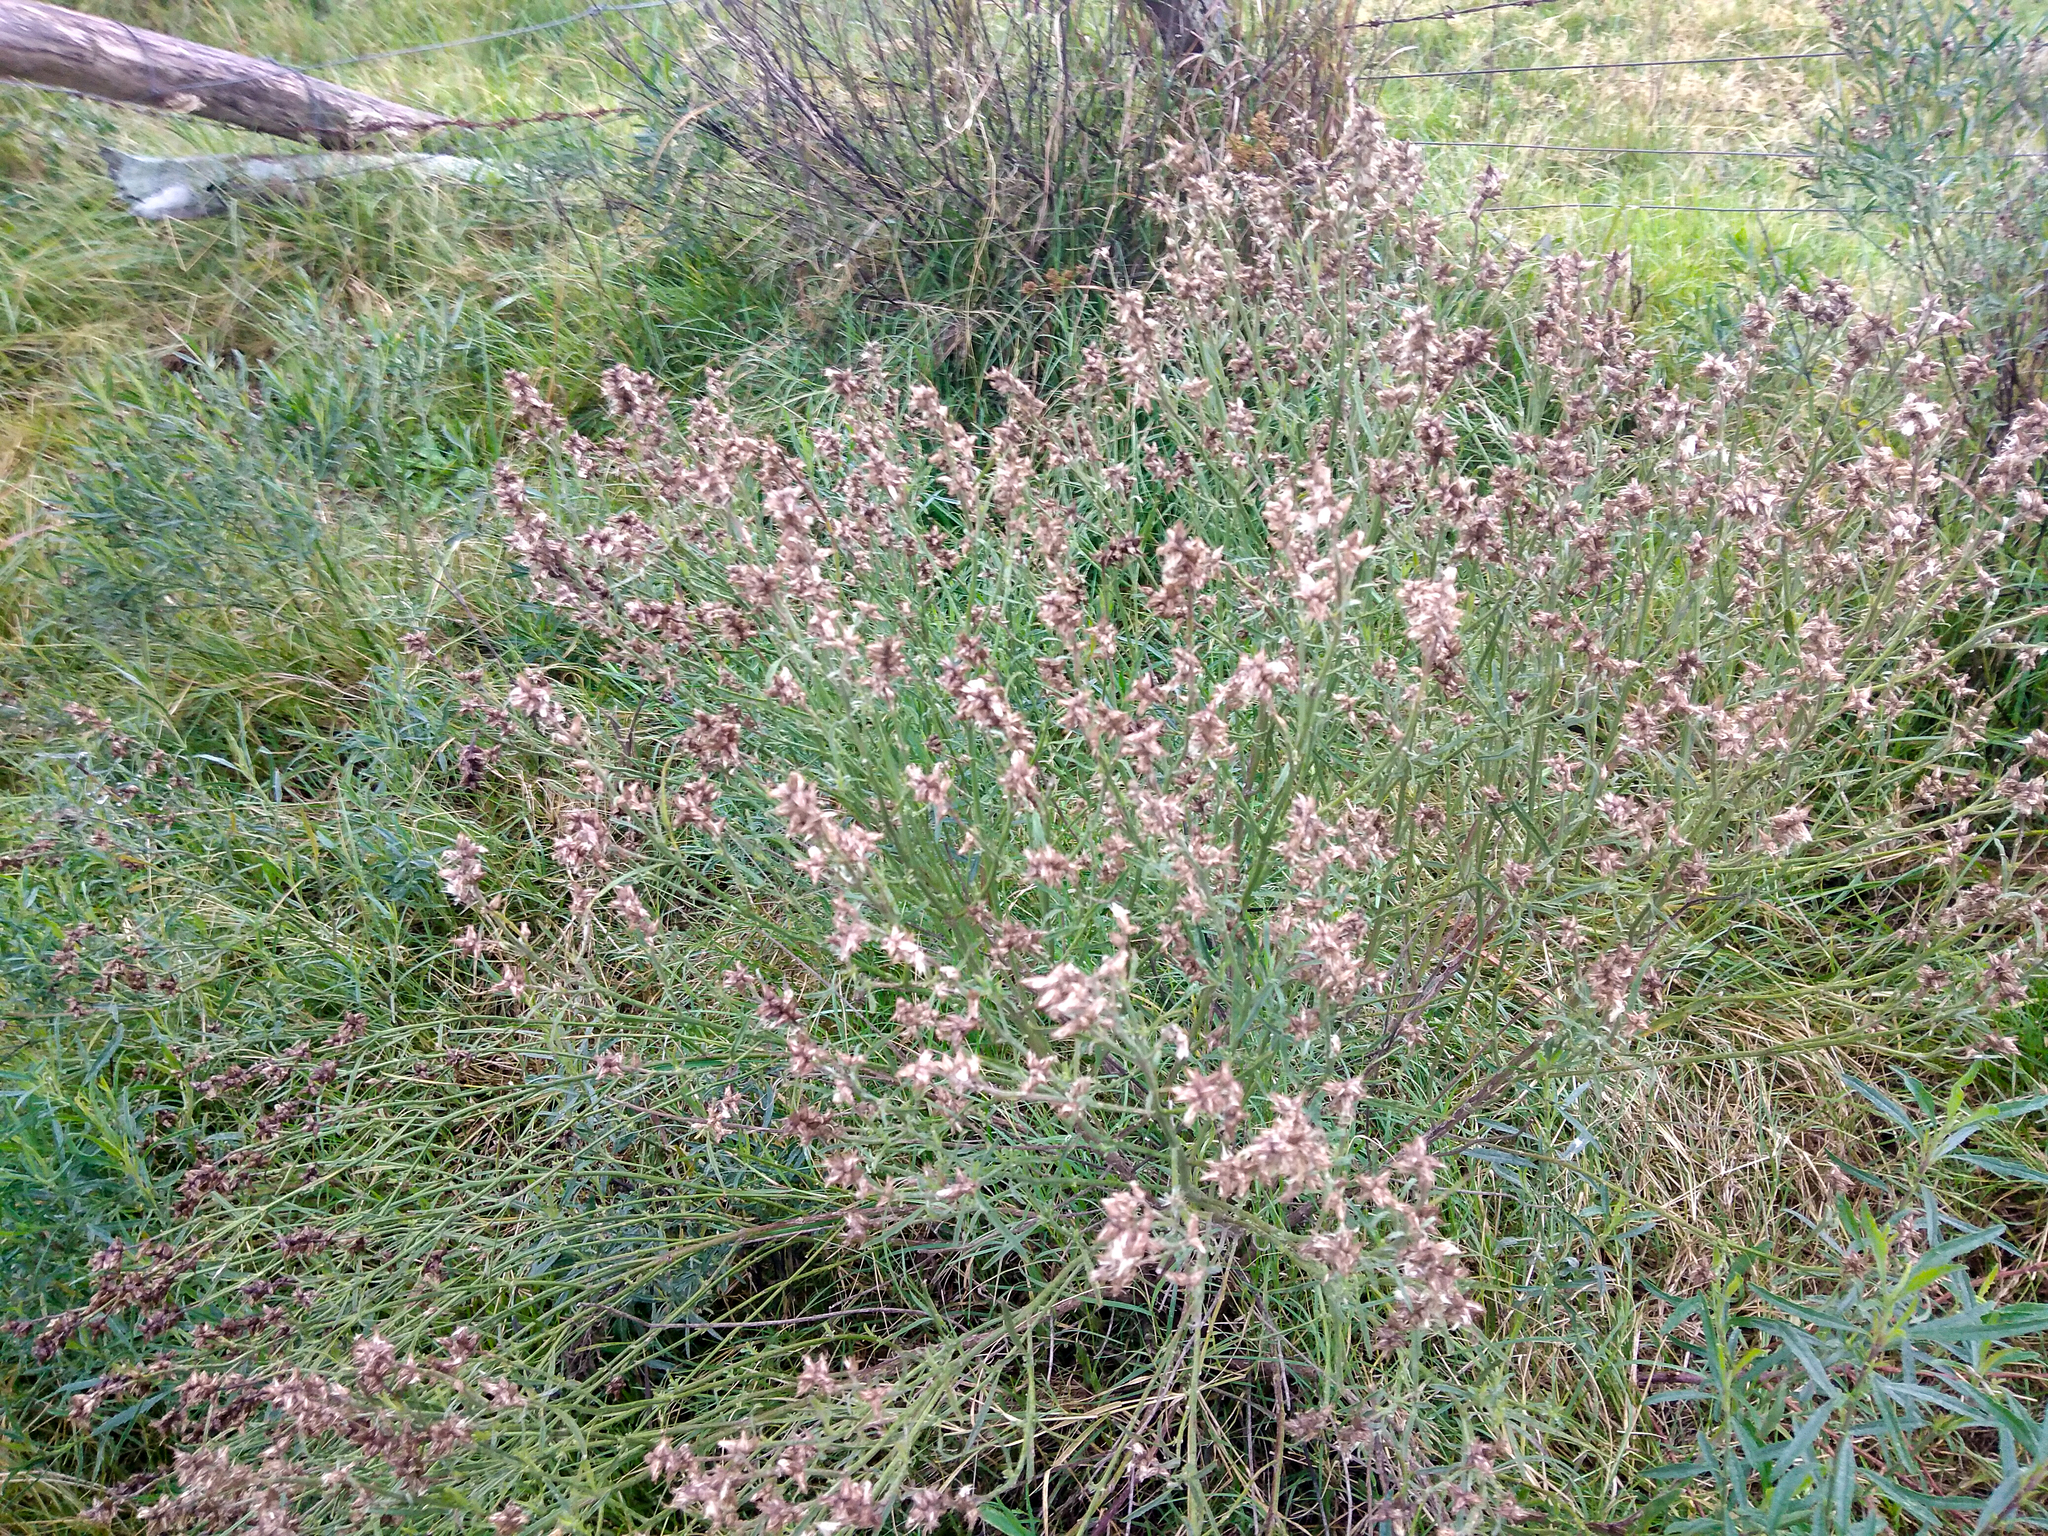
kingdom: Plantae
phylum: Tracheophyta
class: Magnoliopsida
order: Asterales
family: Asteraceae
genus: Baccharis
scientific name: Baccharis spicata
